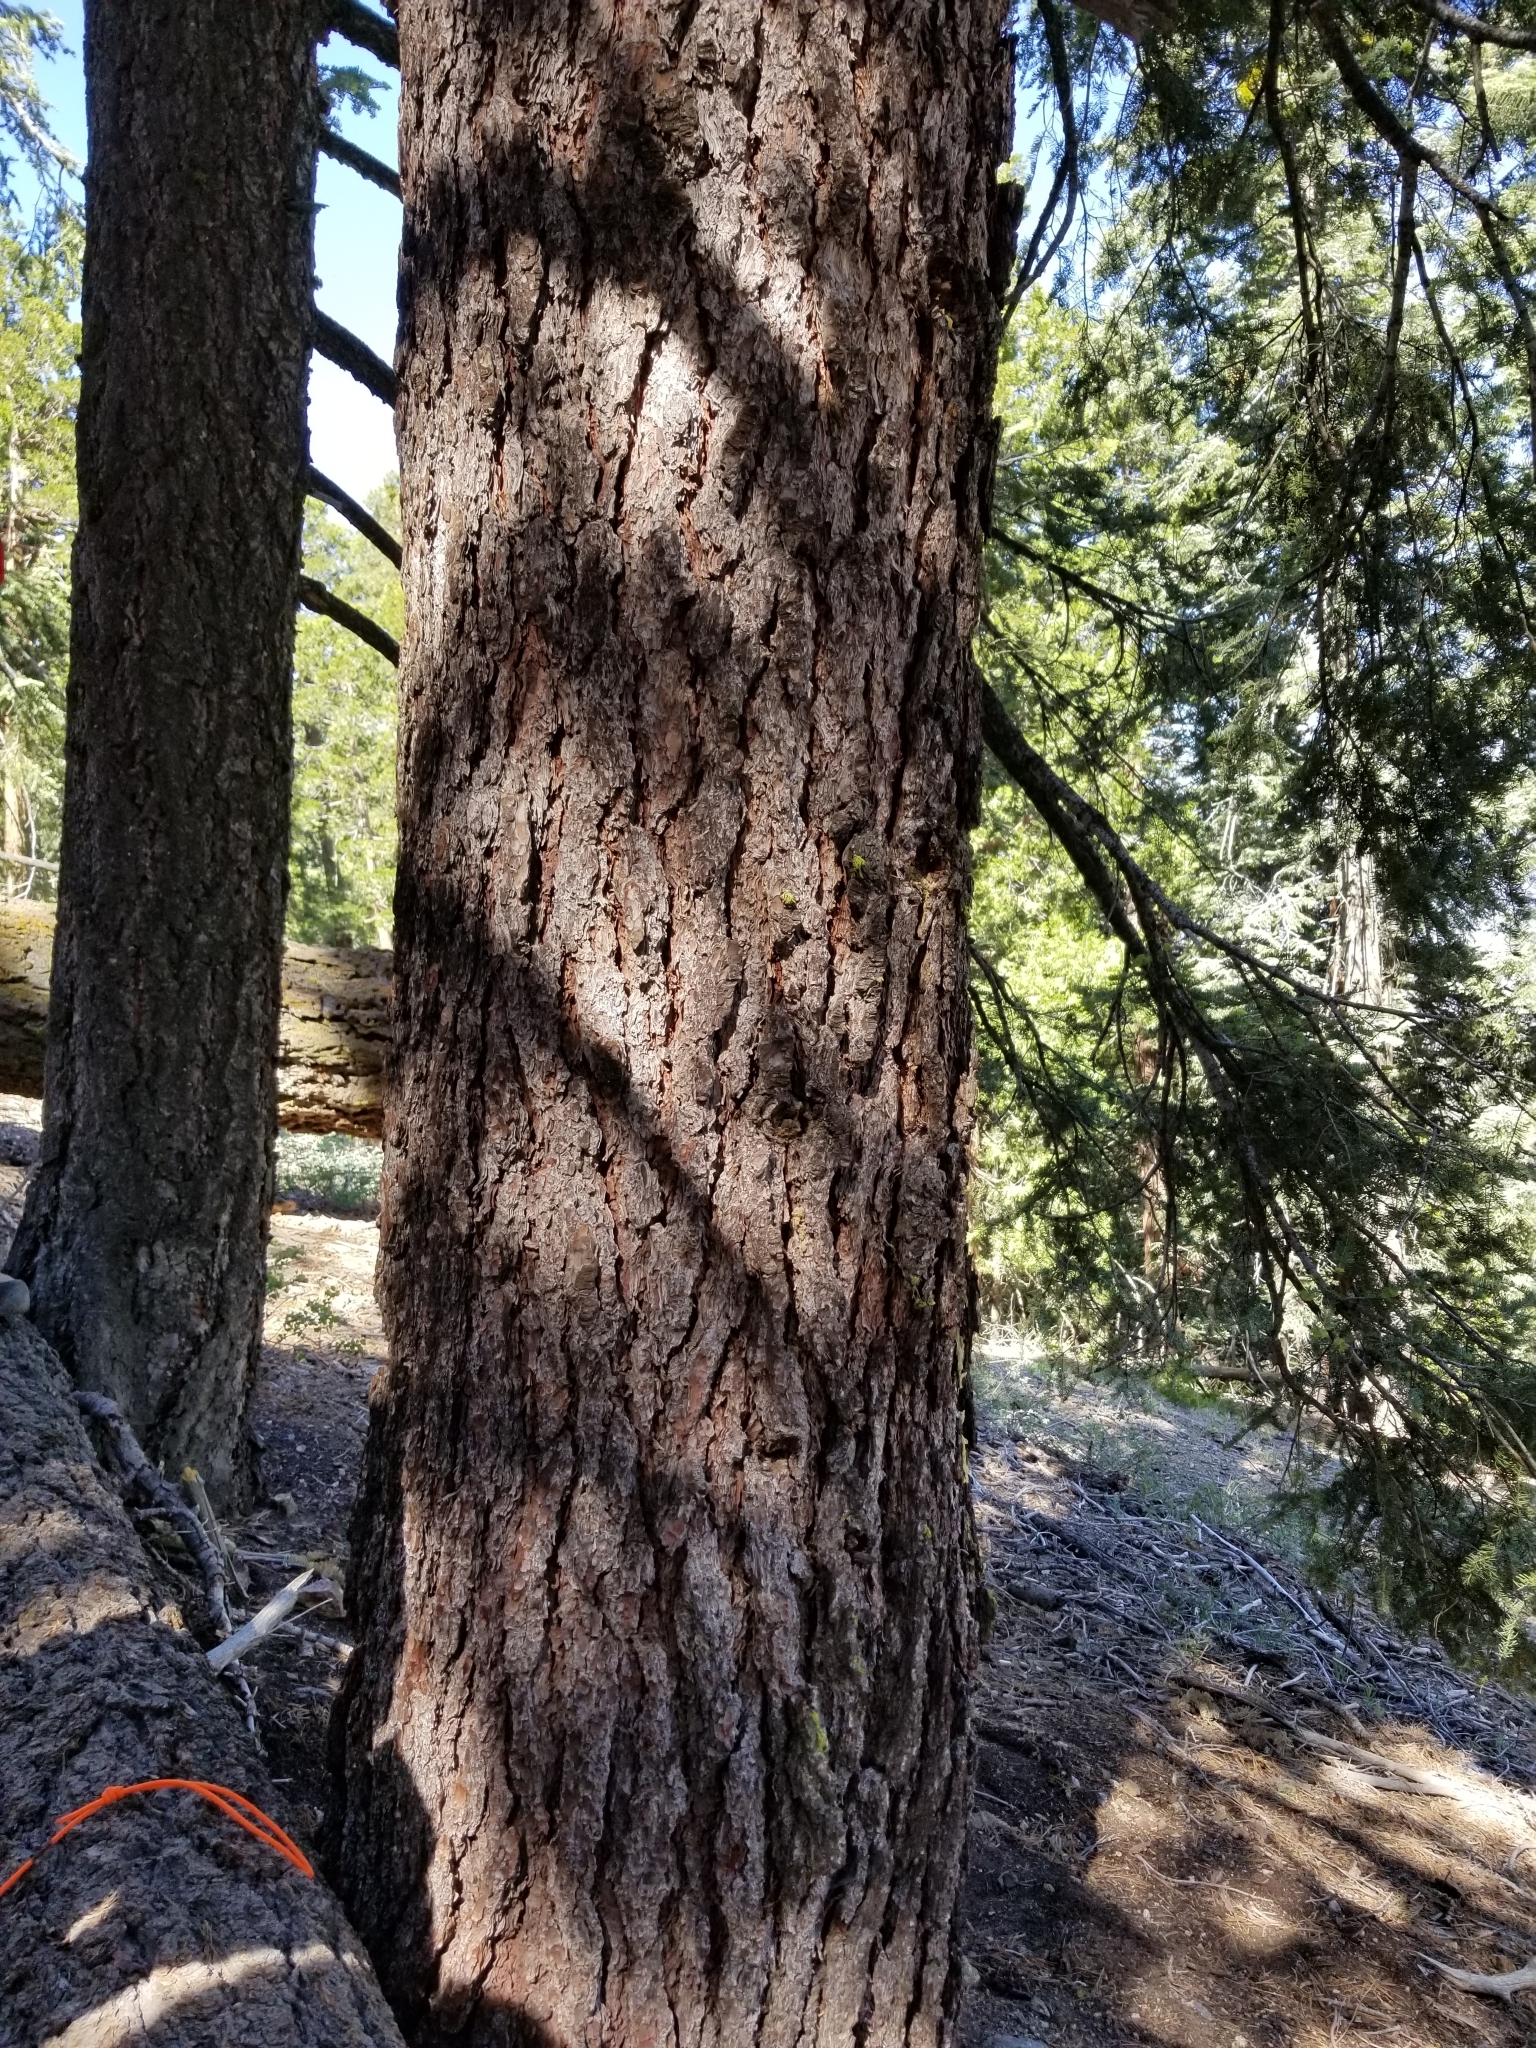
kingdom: Plantae
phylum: Tracheophyta
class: Pinopsida
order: Pinales
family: Pinaceae
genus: Pinus
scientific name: Pinus lambertiana
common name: Sugar pine
